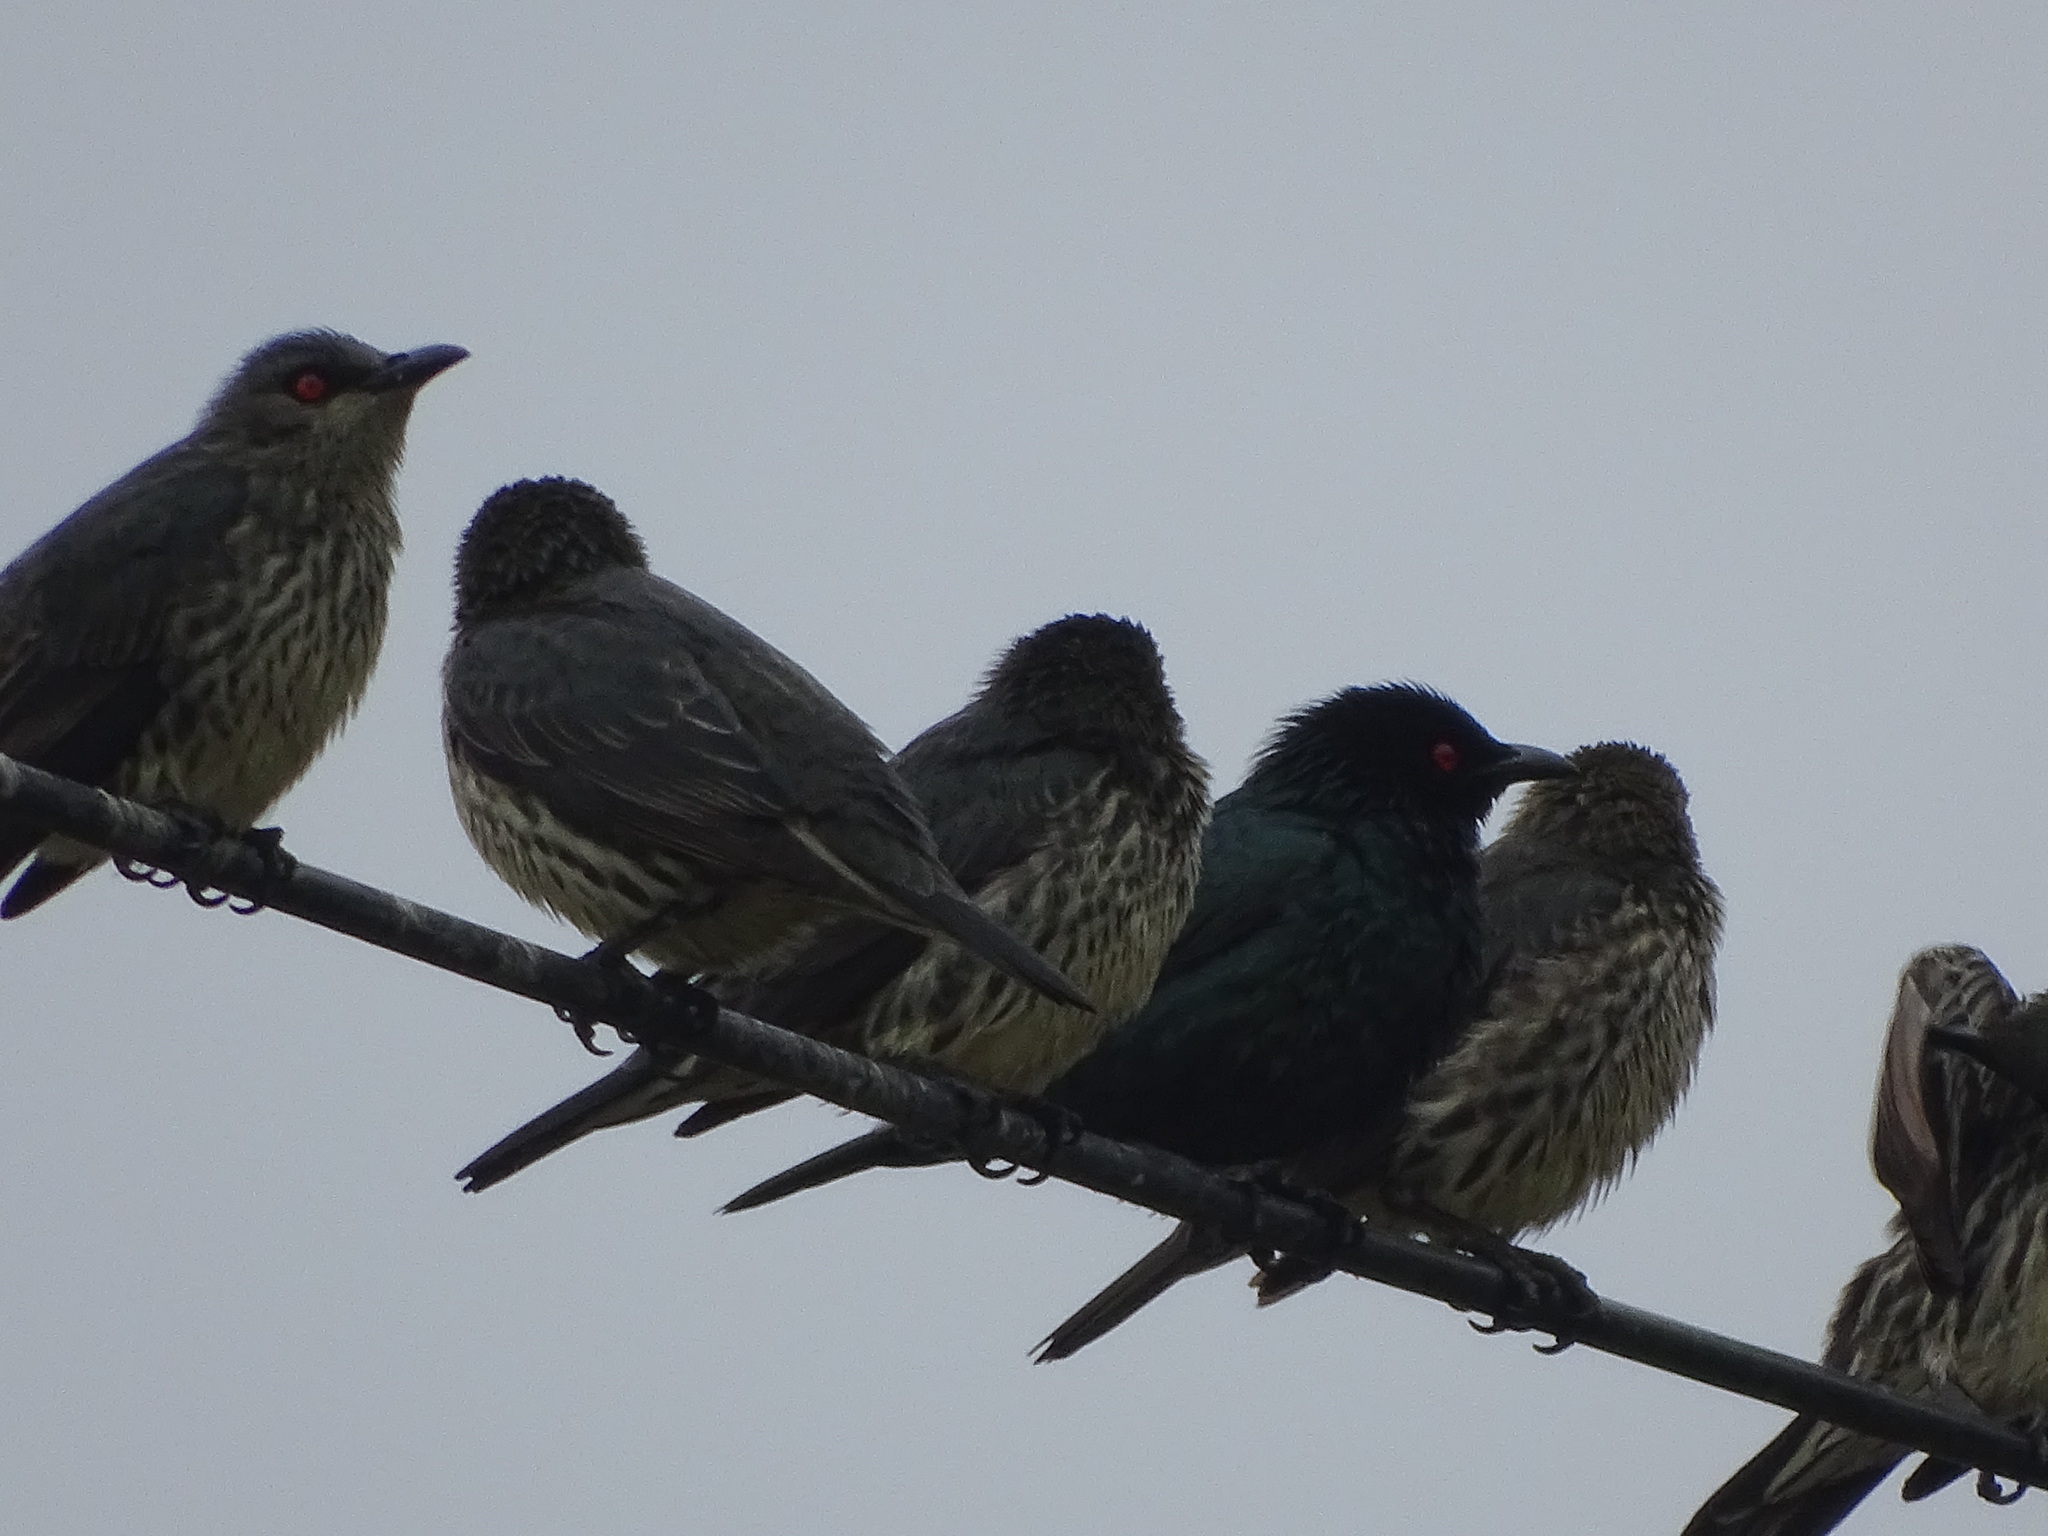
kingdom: Animalia
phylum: Chordata
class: Aves
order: Passeriformes
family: Sturnidae
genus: Aplonis
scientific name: Aplonis panayensis
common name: Asian glossy starling
